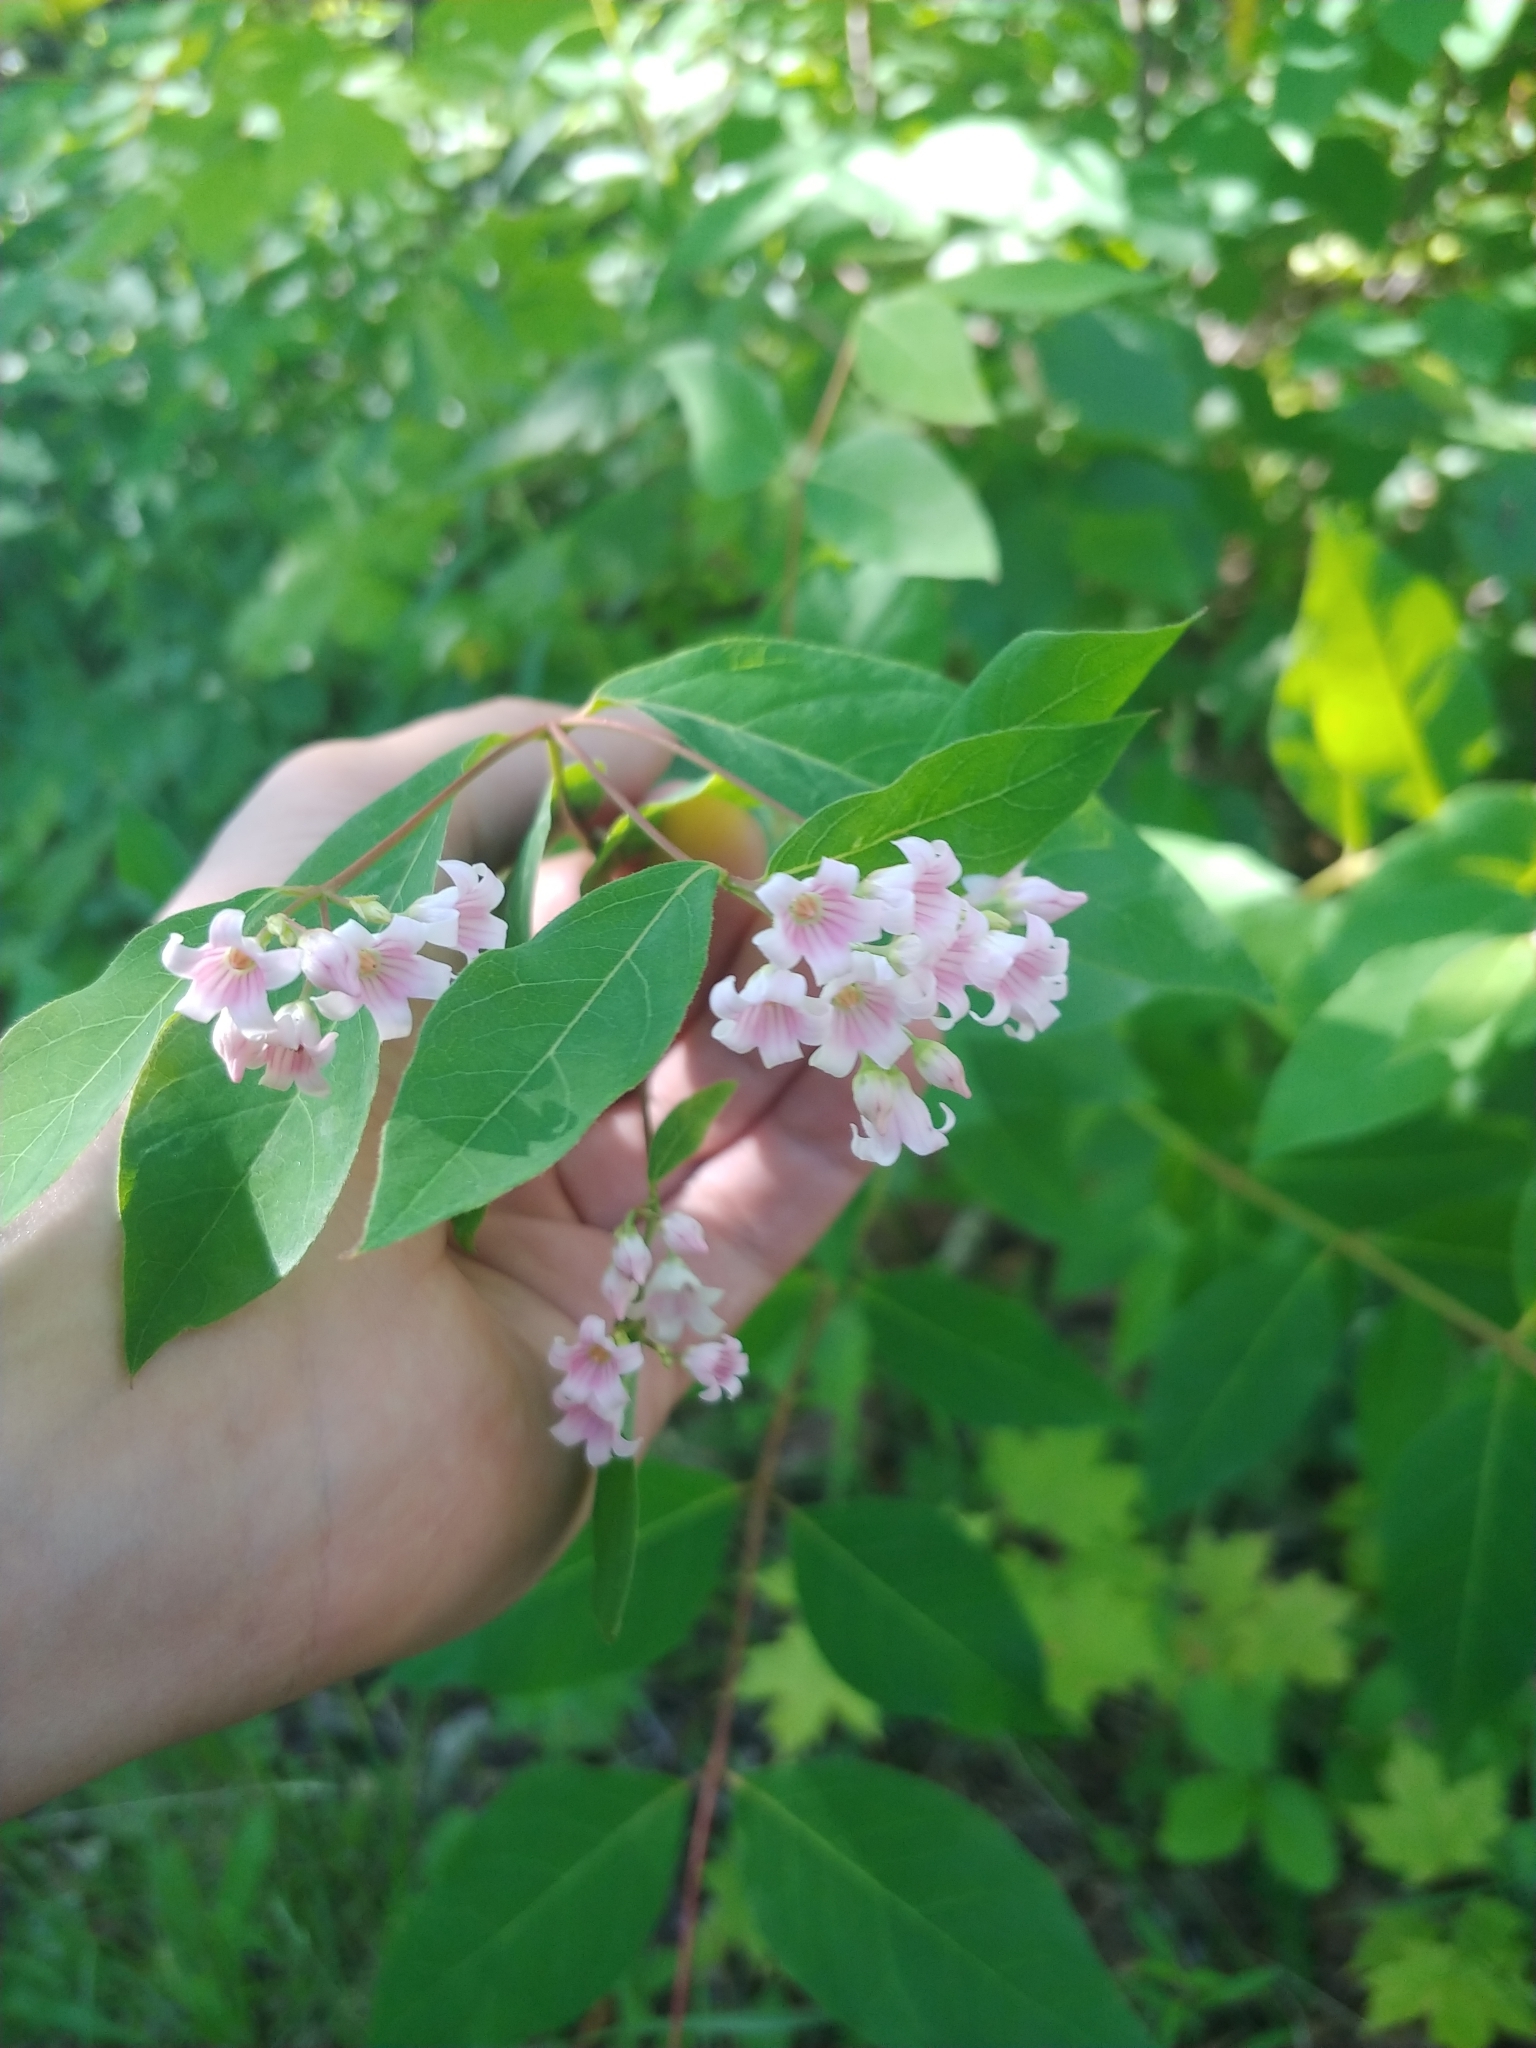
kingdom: Plantae
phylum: Tracheophyta
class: Magnoliopsida
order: Gentianales
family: Apocynaceae
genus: Apocynum
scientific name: Apocynum androsaemifolium
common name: Spreading dogbane
